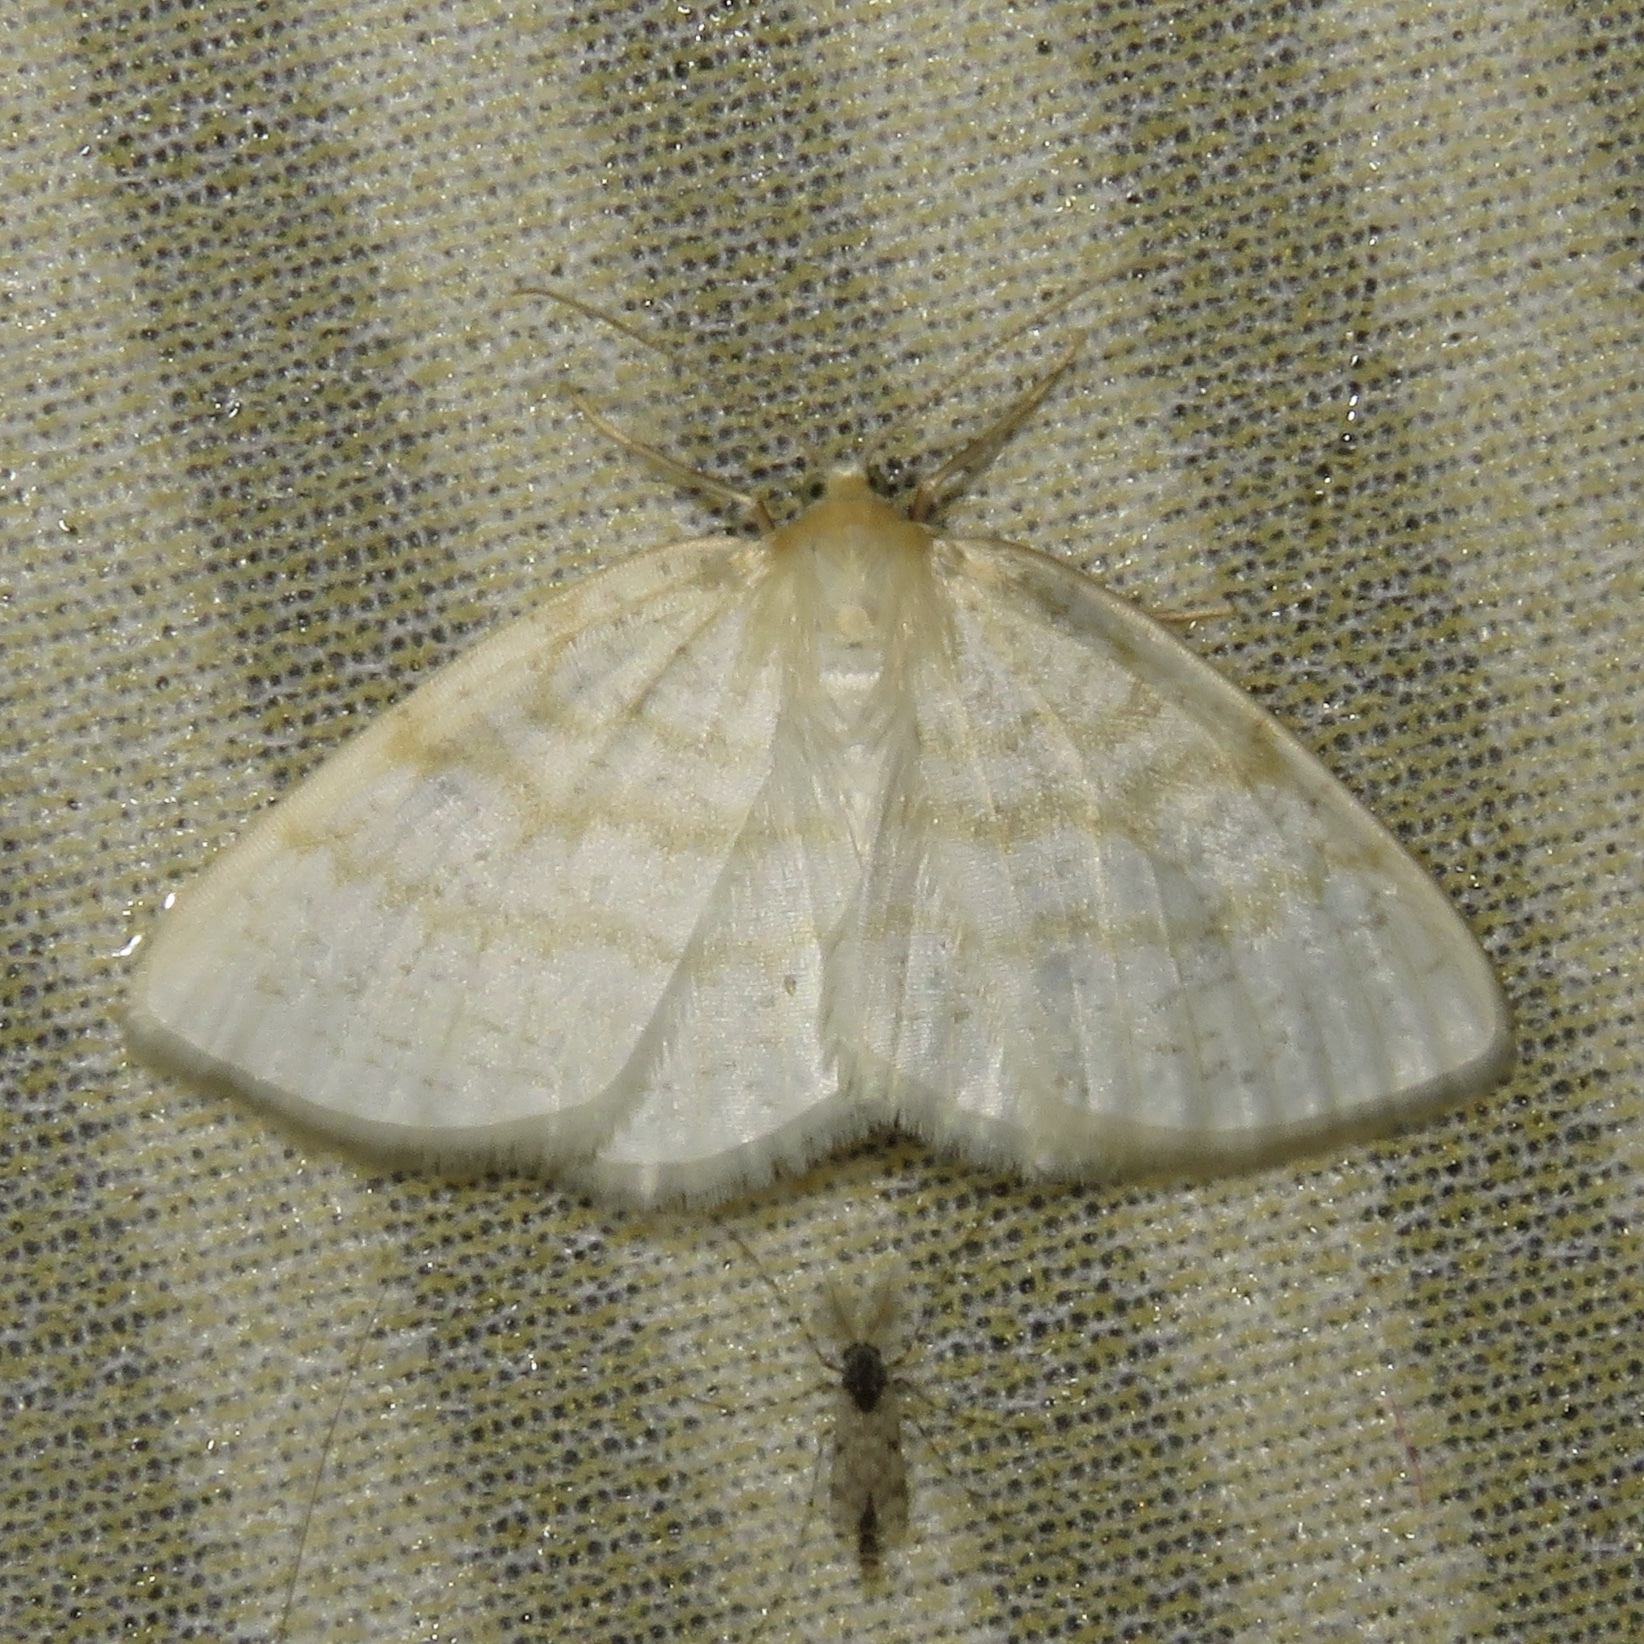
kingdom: Animalia
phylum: Arthropoda
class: Insecta
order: Lepidoptera
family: Geometridae
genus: Cabera
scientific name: Cabera erythemaria
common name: Yellow-dusted cream moth
